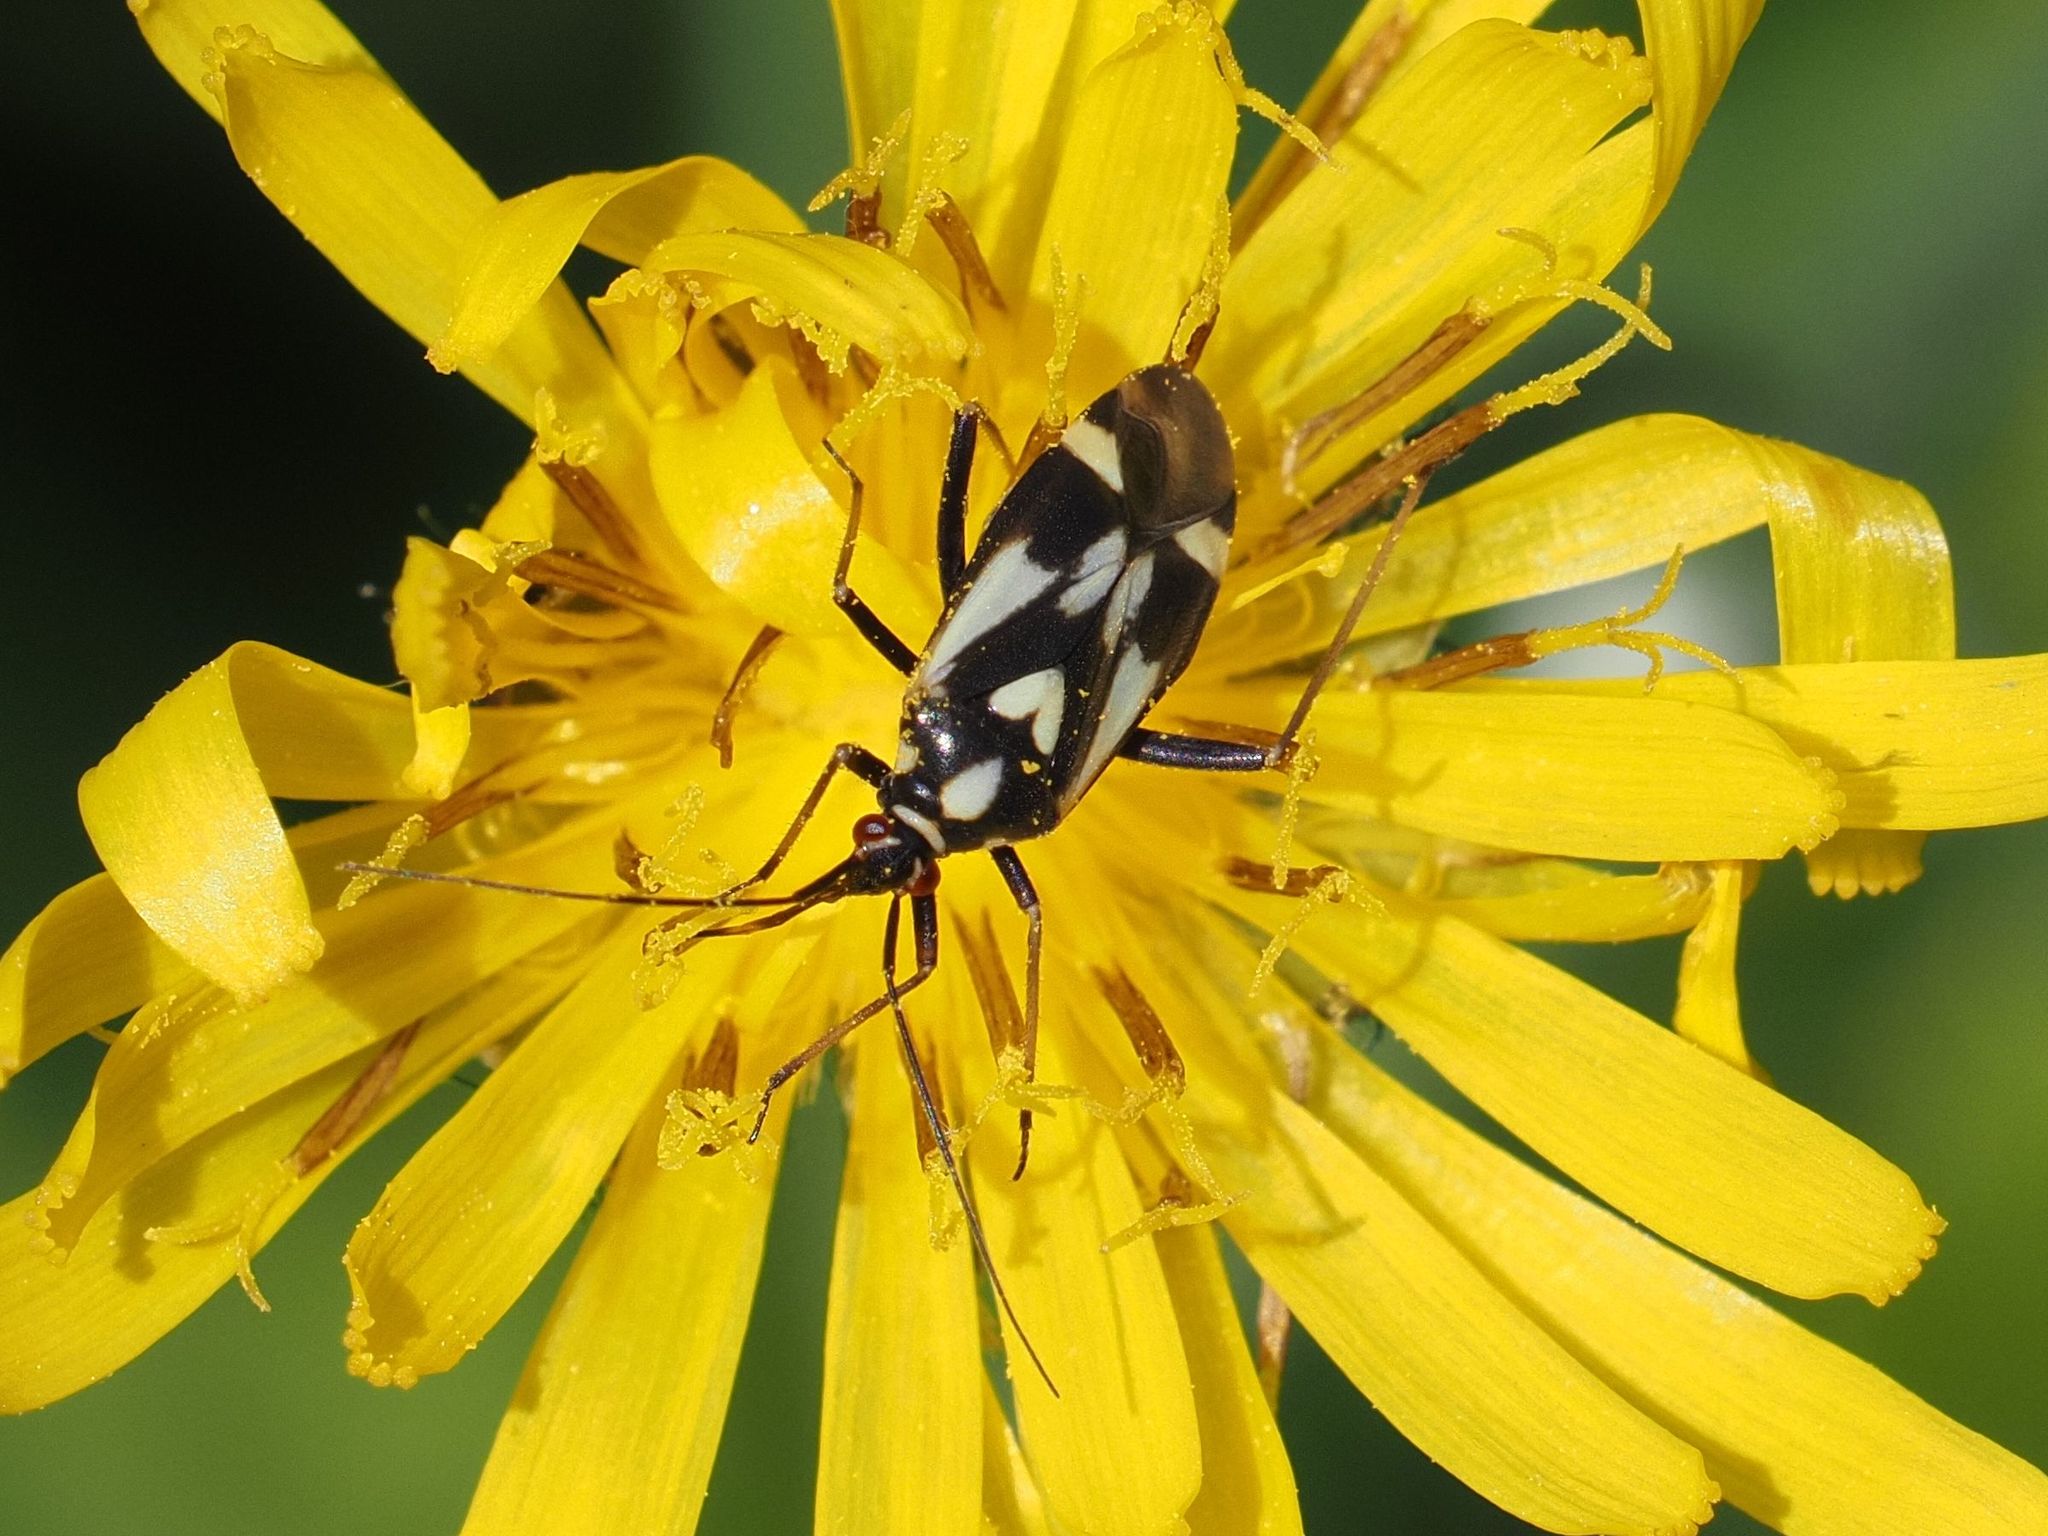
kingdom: Animalia
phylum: Arthropoda
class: Insecta
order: Hemiptera
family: Miridae
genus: Grypocoris
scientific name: Grypocoris sexguttatus
